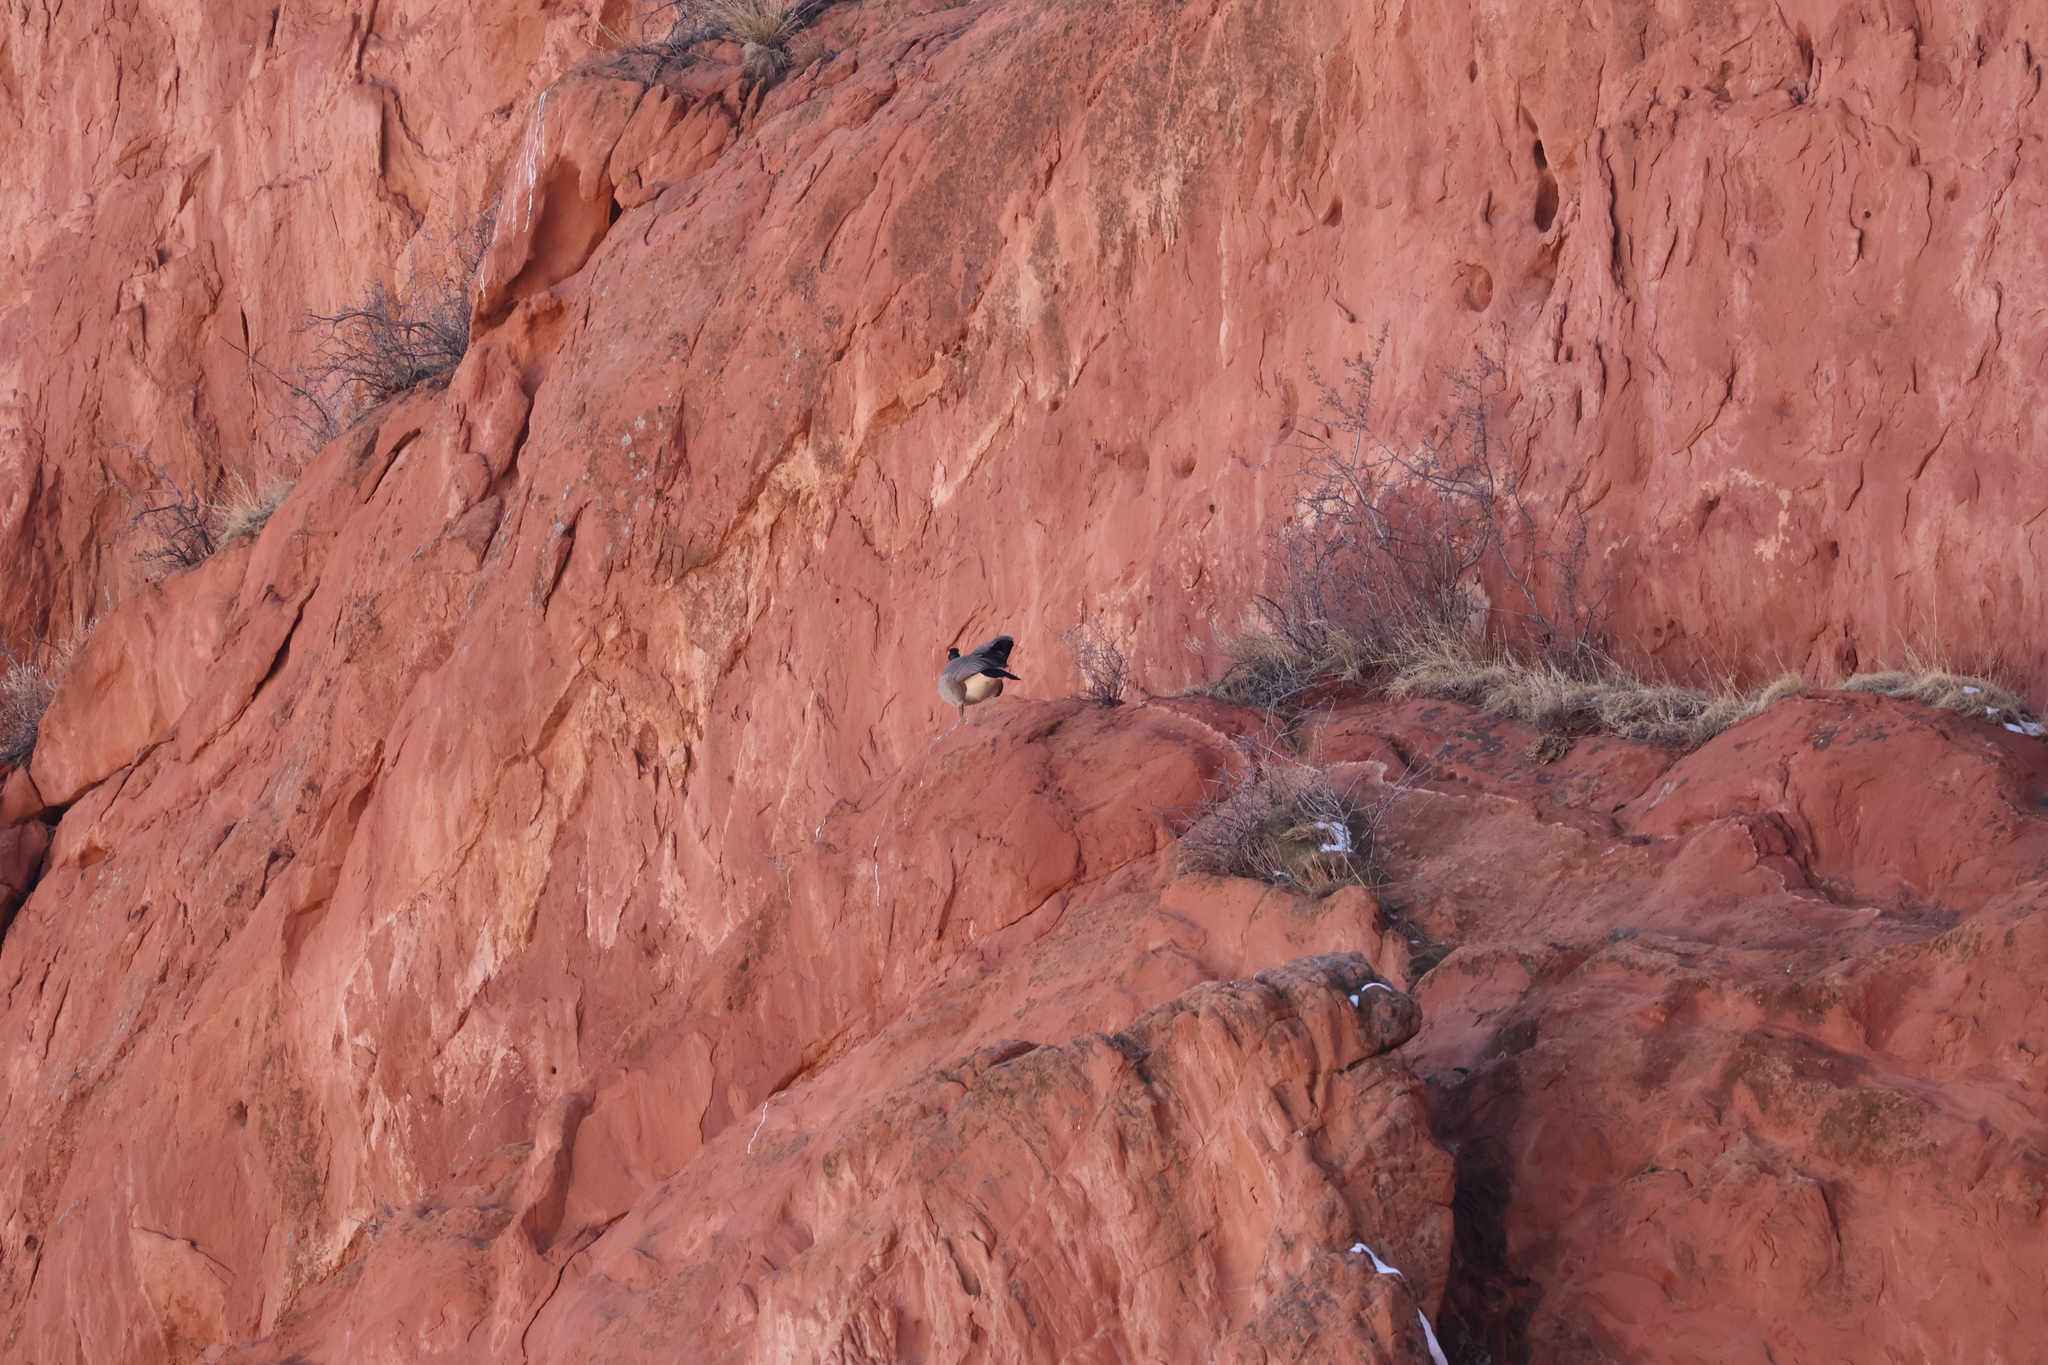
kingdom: Animalia
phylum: Chordata
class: Aves
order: Anseriformes
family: Anatidae
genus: Branta
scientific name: Branta canadensis
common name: Canada goose
